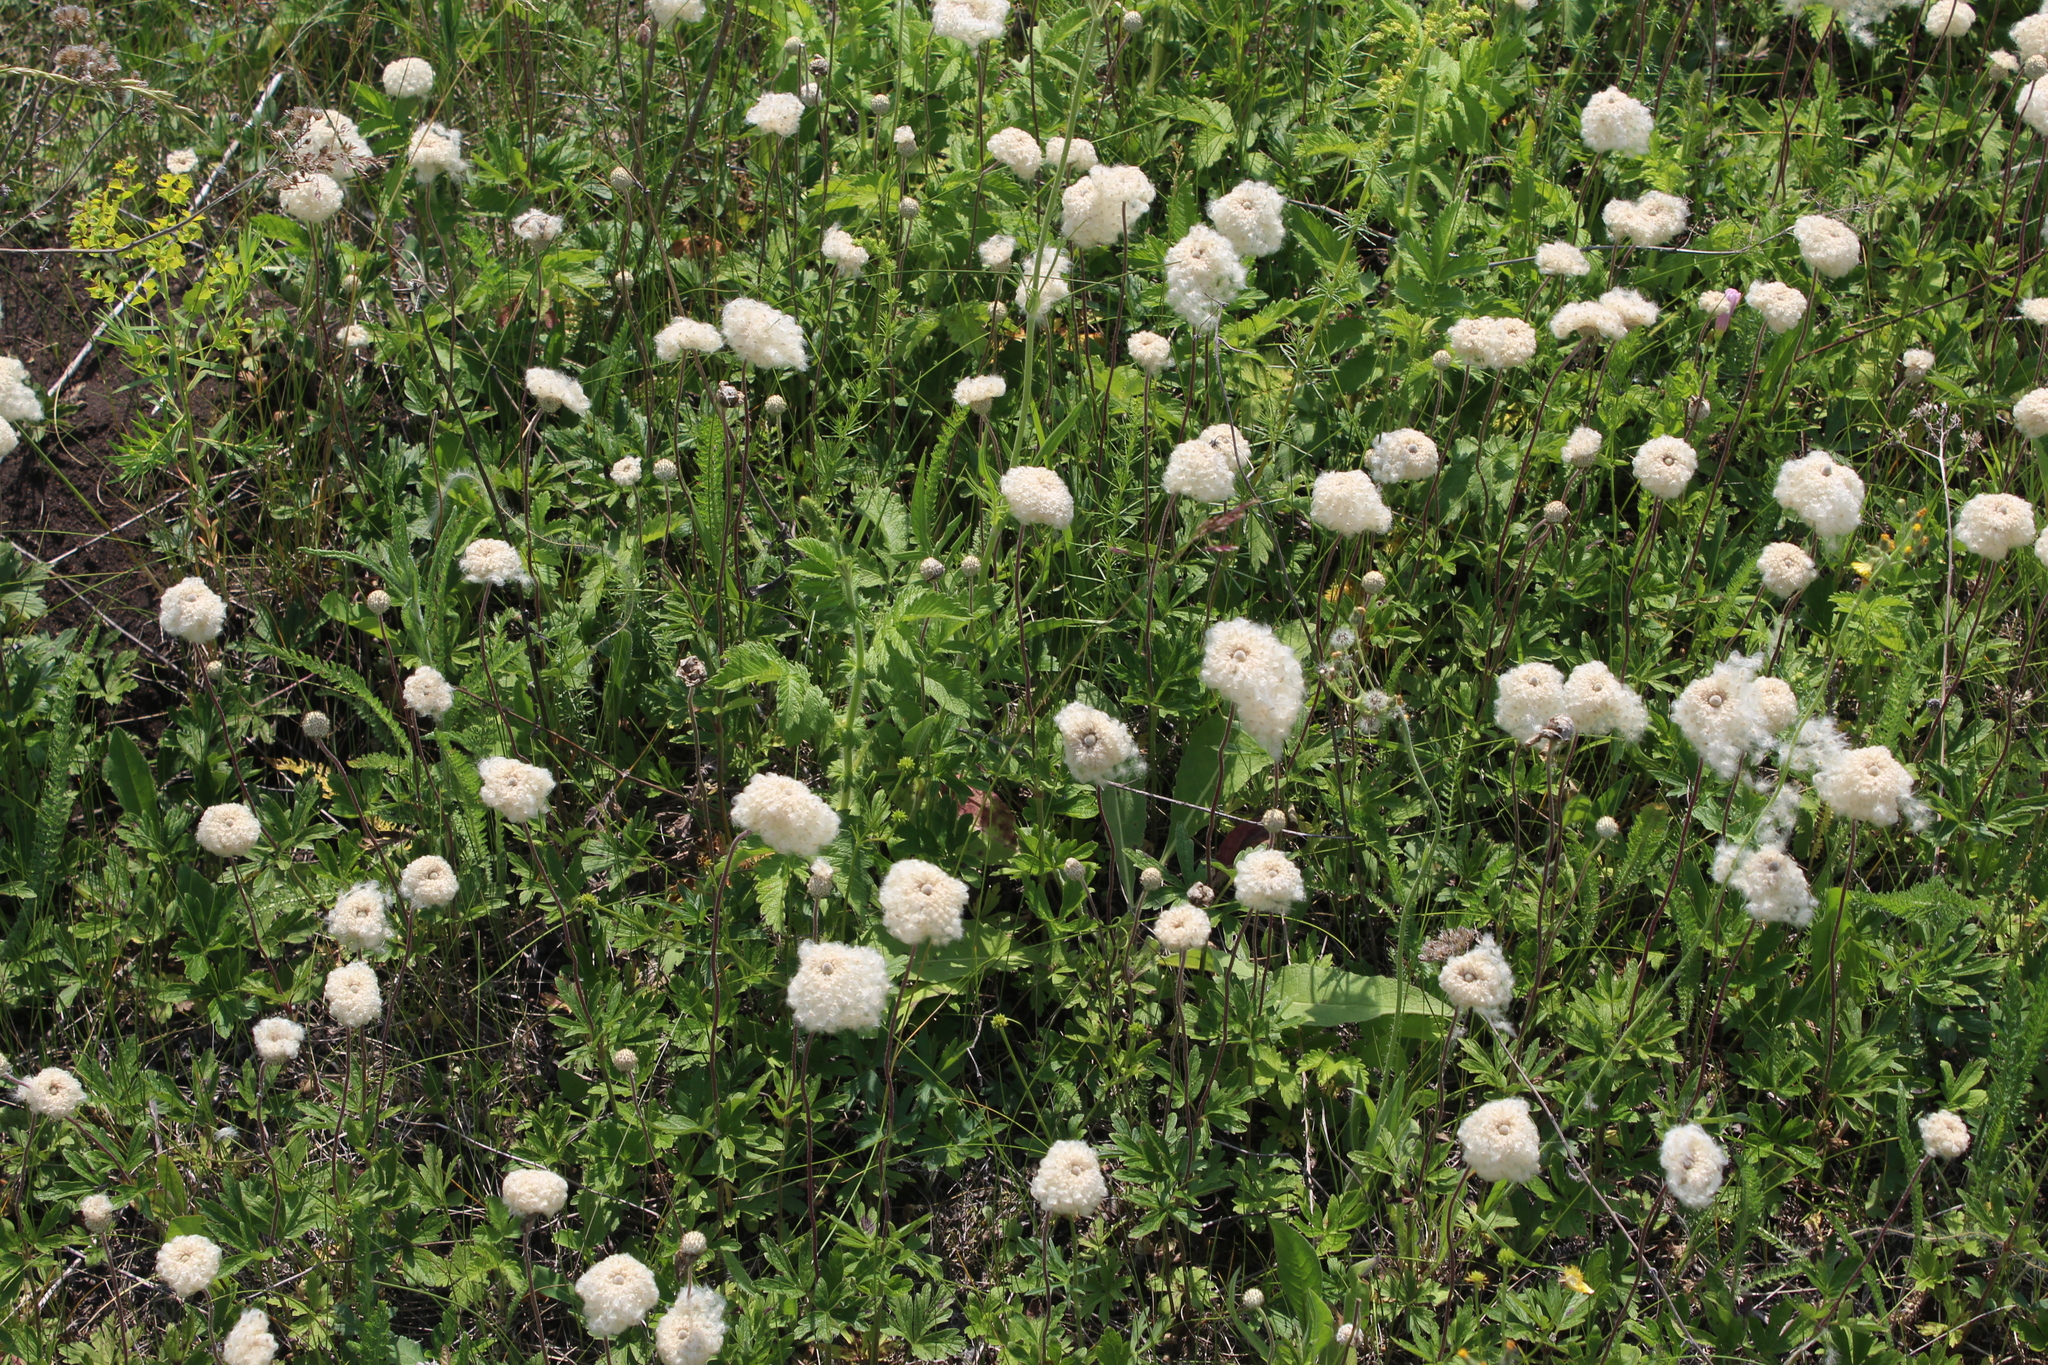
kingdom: Plantae
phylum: Tracheophyta
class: Magnoliopsida
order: Ranunculales
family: Ranunculaceae
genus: Anemone
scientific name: Anemone sylvestris
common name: Snowdrop anemone
